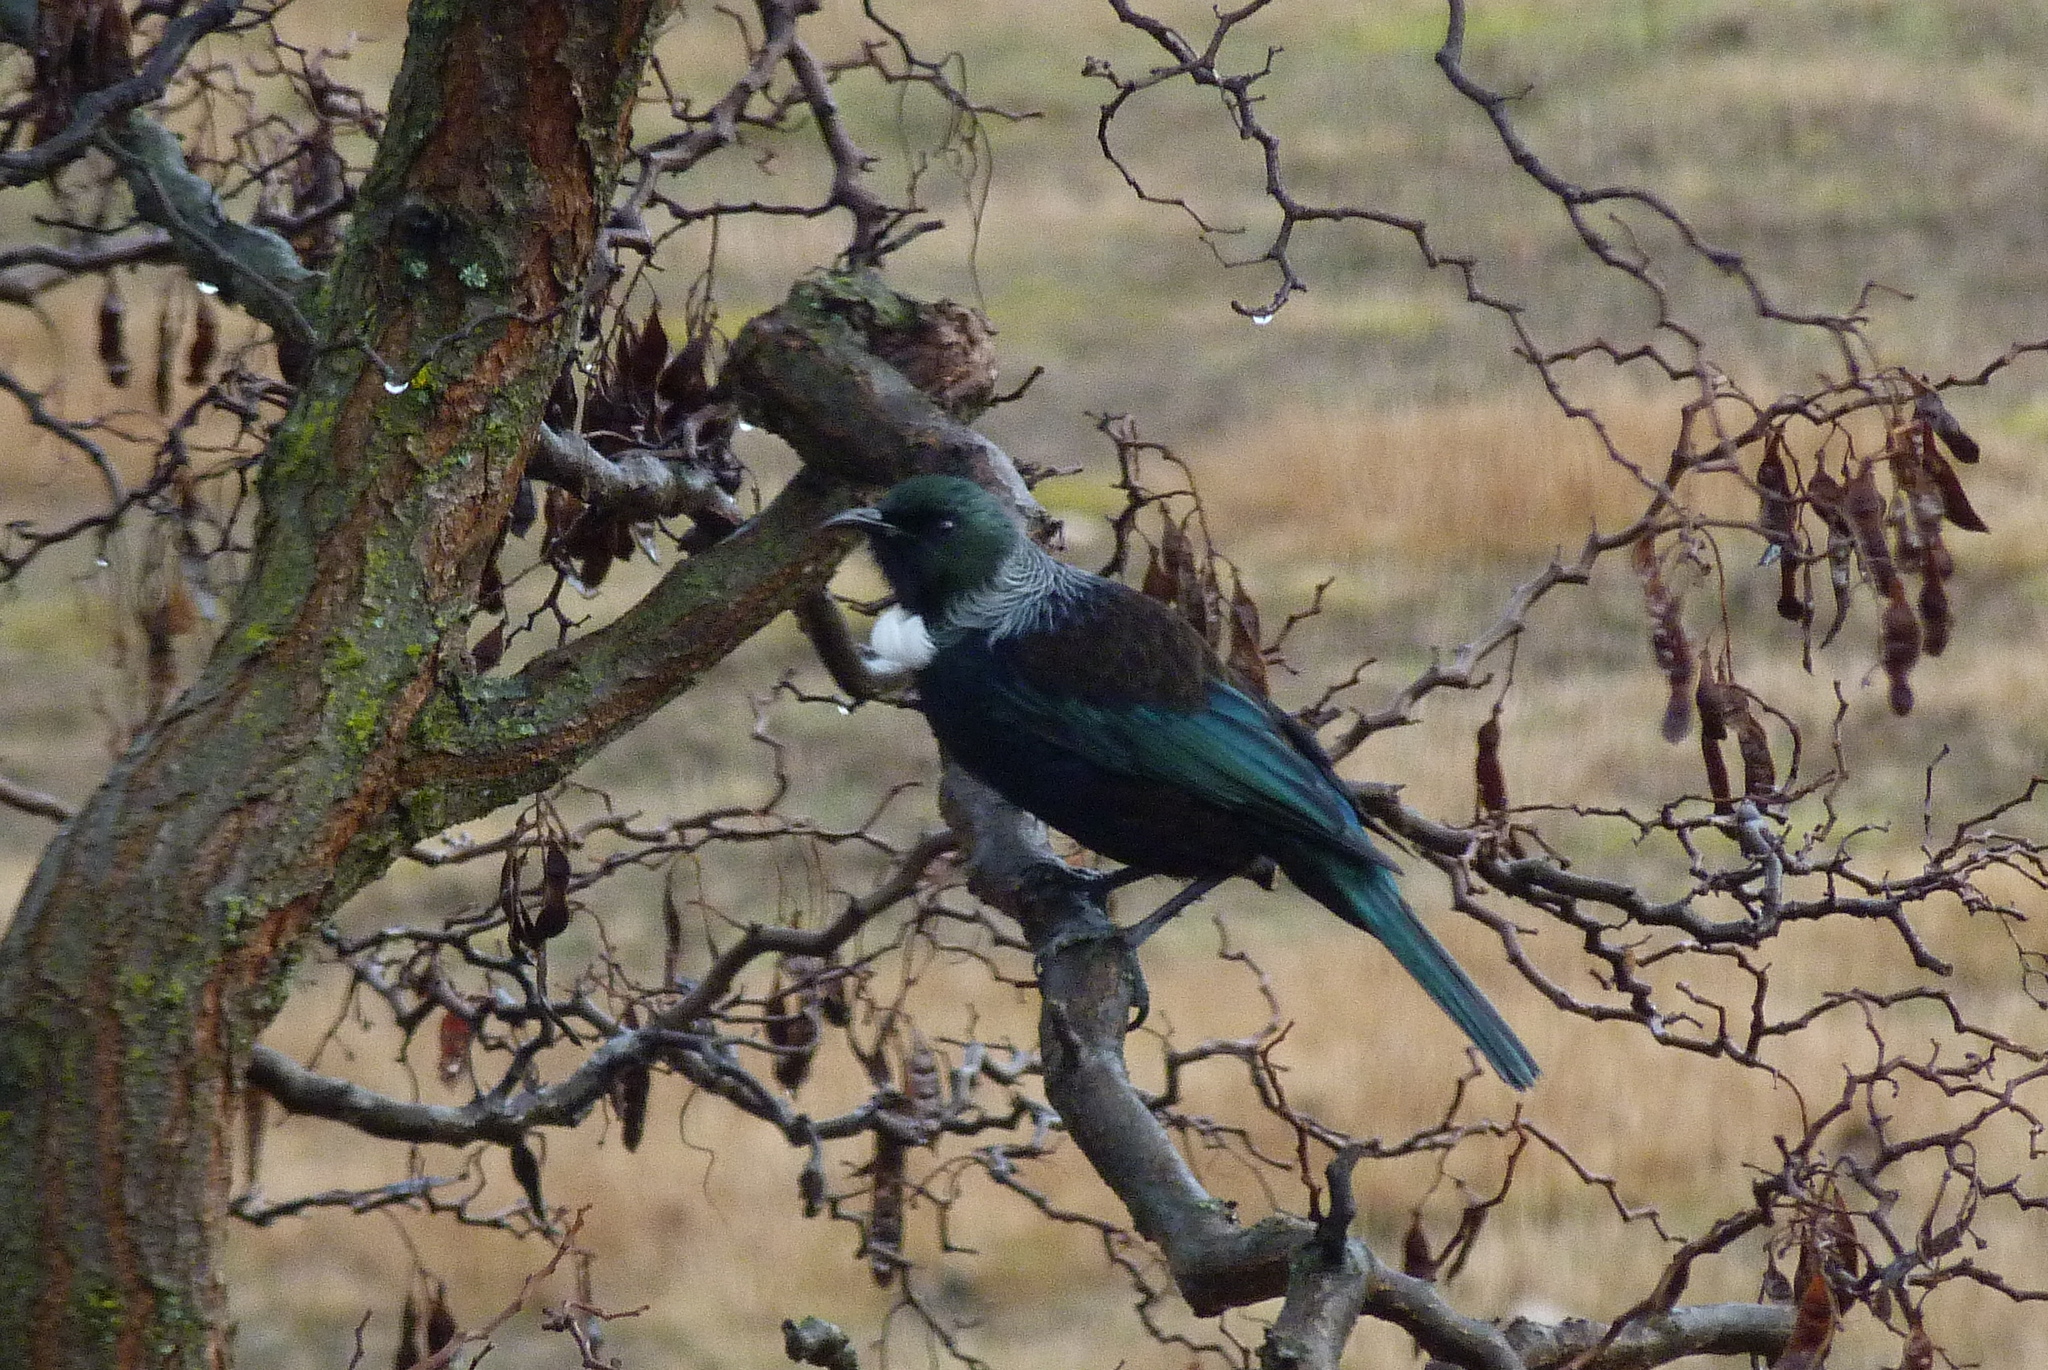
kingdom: Animalia
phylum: Chordata
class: Aves
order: Passeriformes
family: Meliphagidae
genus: Prosthemadera
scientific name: Prosthemadera novaeseelandiae
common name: Tui
